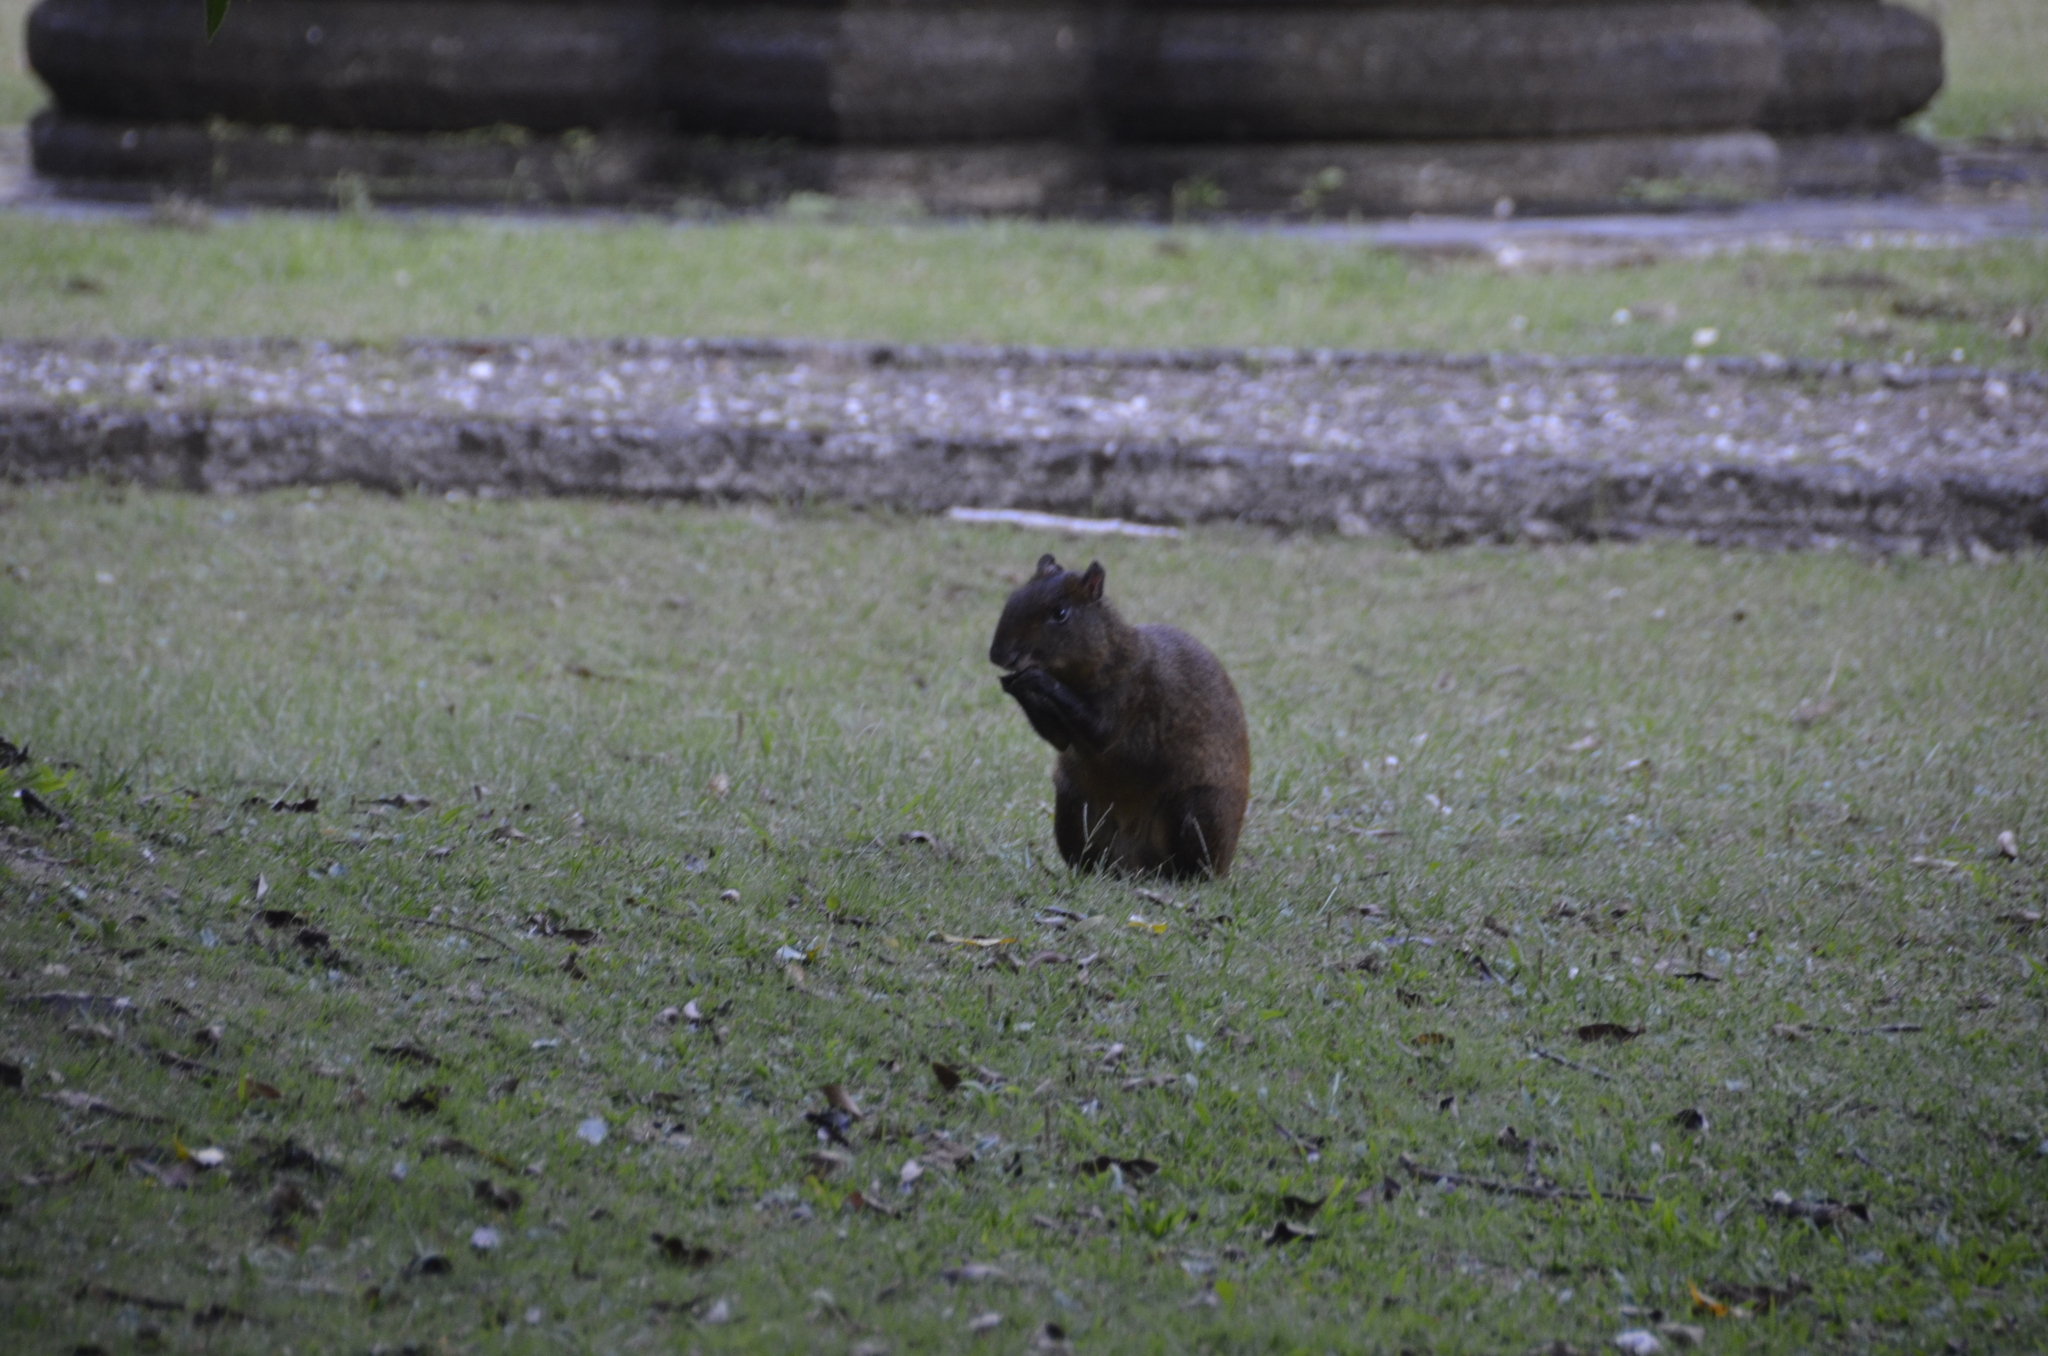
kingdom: Animalia
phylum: Chordata
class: Mammalia
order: Rodentia
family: Dasyproctidae
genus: Dasyprocta
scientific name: Dasyprocta punctata
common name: Central american agouti
